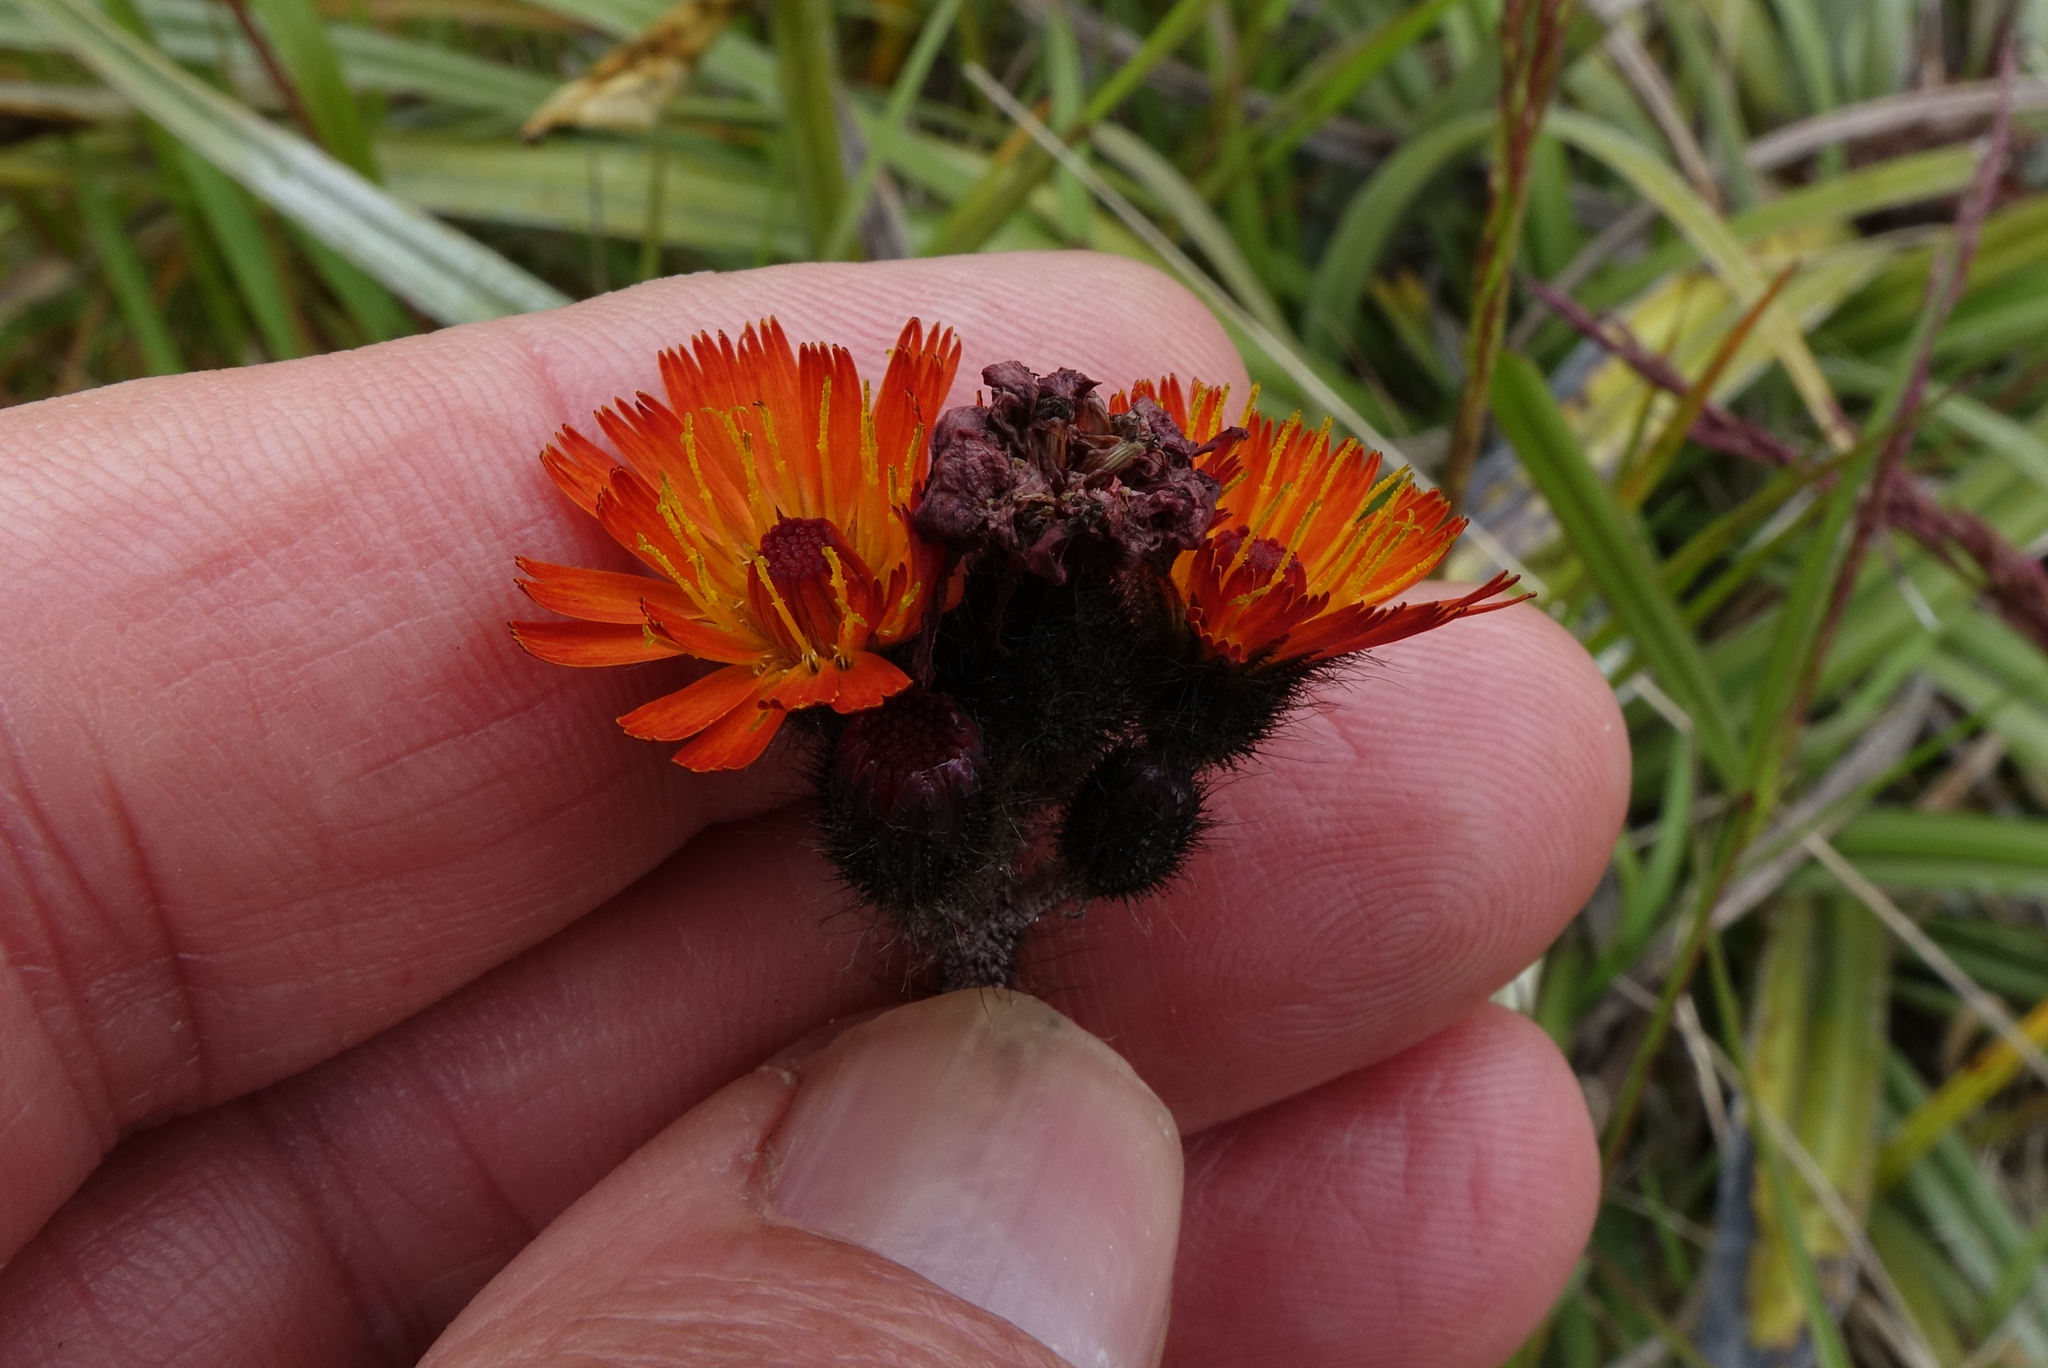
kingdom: Plantae
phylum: Tracheophyta
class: Magnoliopsida
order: Asterales
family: Asteraceae
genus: Pilosella
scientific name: Pilosella aurantiaca
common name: Fox-and-cubs
